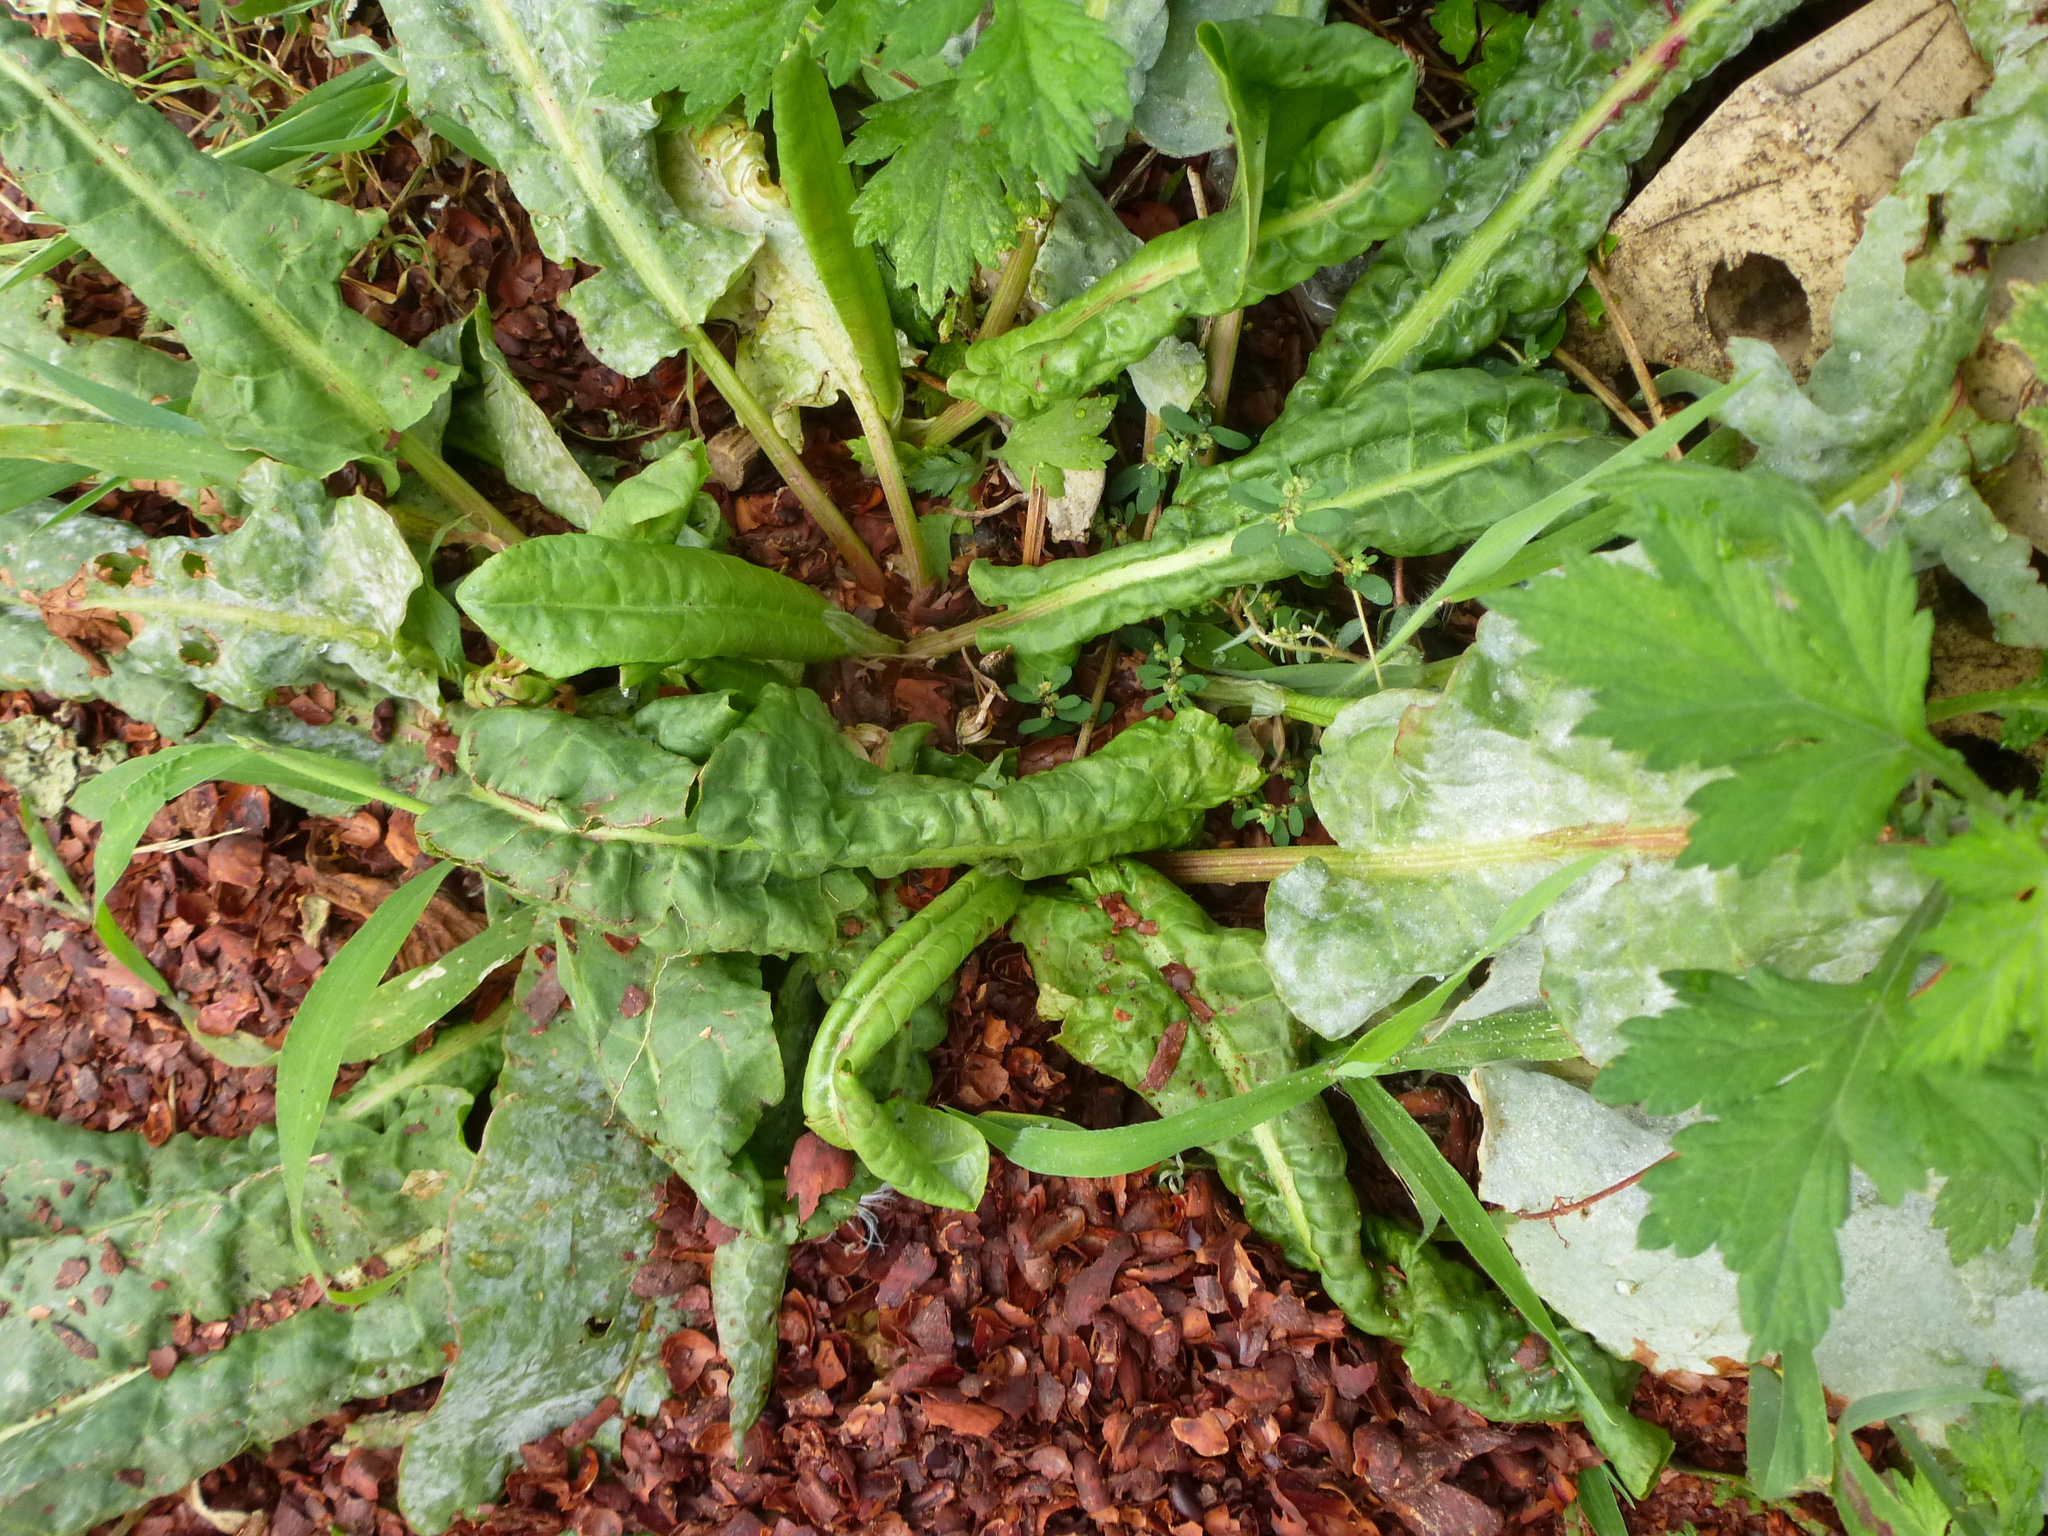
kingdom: Plantae
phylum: Tracheophyta
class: Magnoliopsida
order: Caryophyllales
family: Polygonaceae
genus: Rumex
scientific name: Rumex crispus
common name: Curled dock
